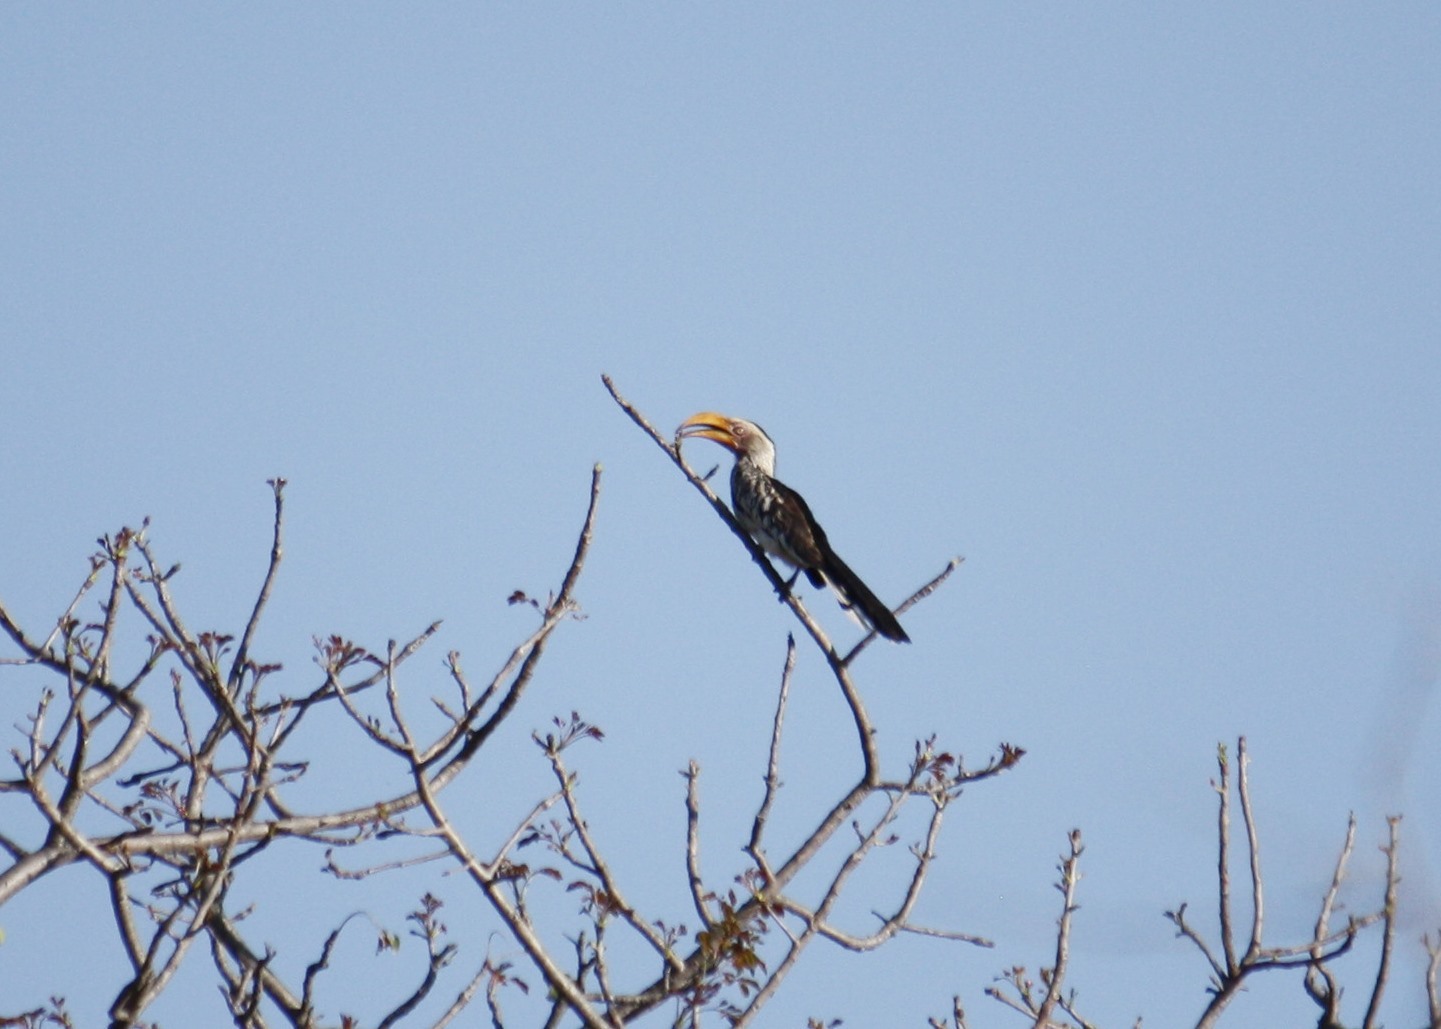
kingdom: Animalia
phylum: Chordata
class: Aves
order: Bucerotiformes
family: Bucerotidae
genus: Tockus
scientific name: Tockus leucomelas
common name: Southern yellow-billed hornbill
